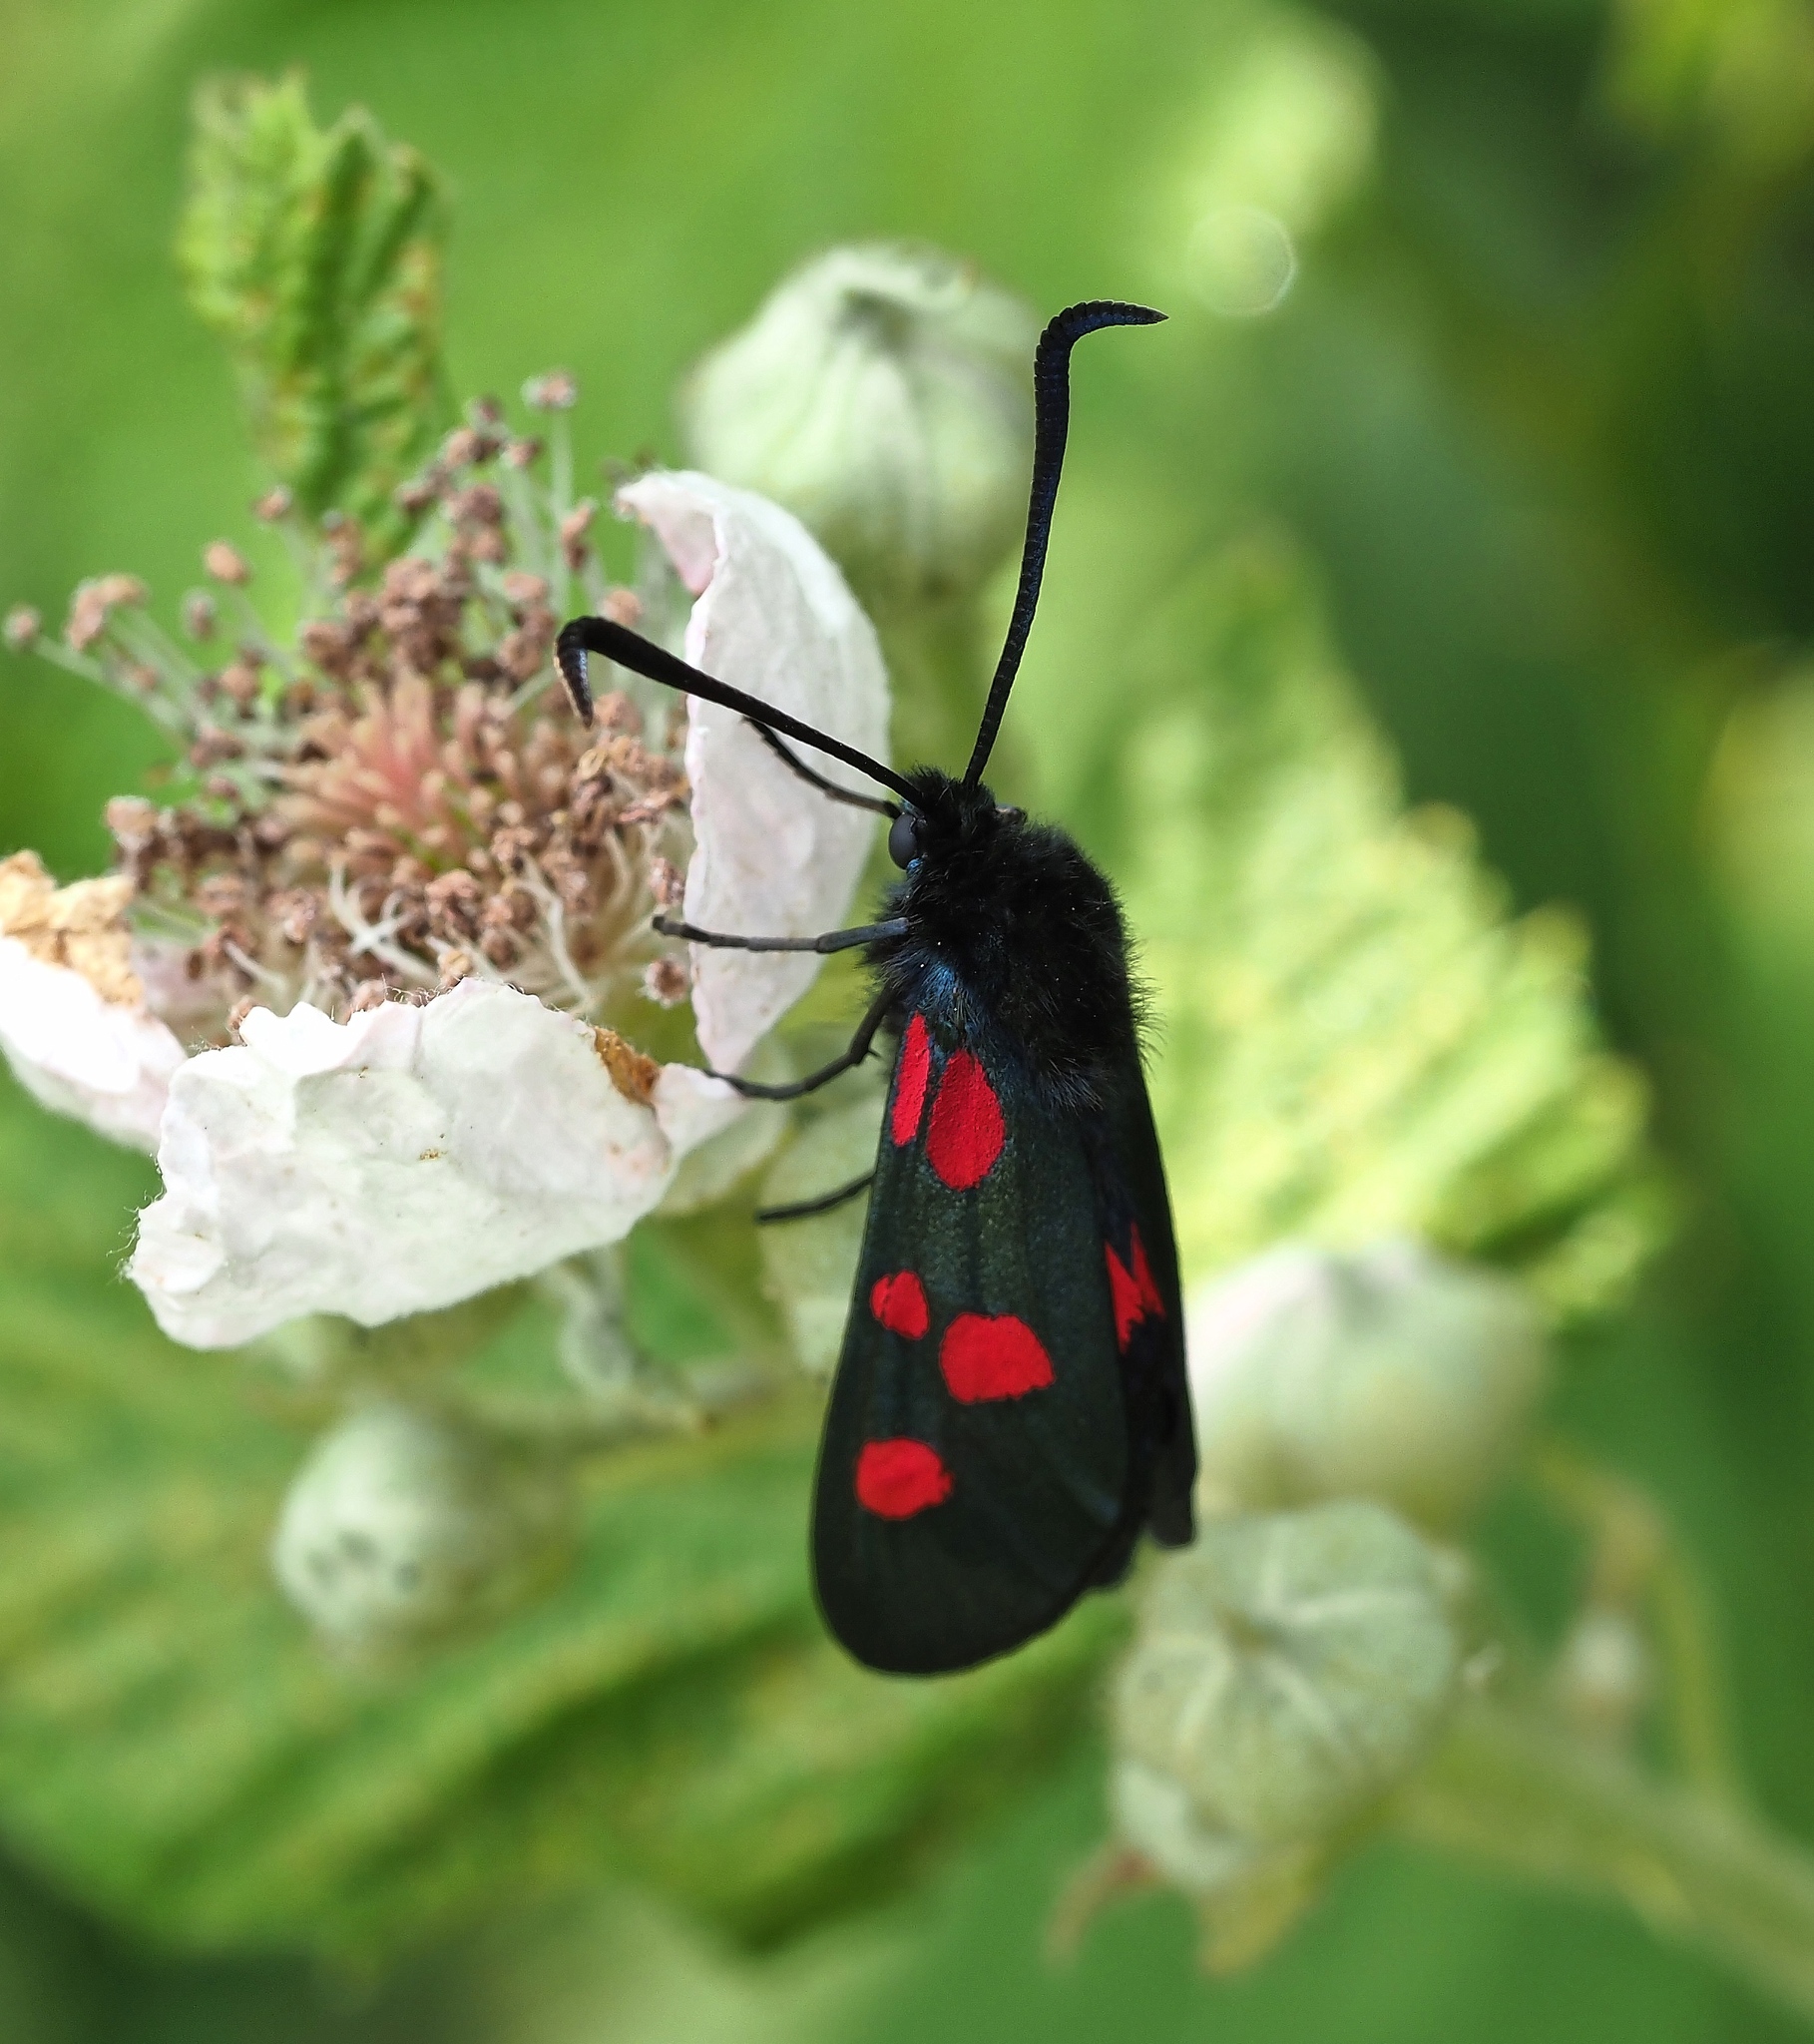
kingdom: Animalia
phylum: Arthropoda
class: Insecta
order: Lepidoptera
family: Zygaenidae
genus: Zygaena
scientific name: Zygaena lonicerae
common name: Narrow-bordered five-spot burnet
